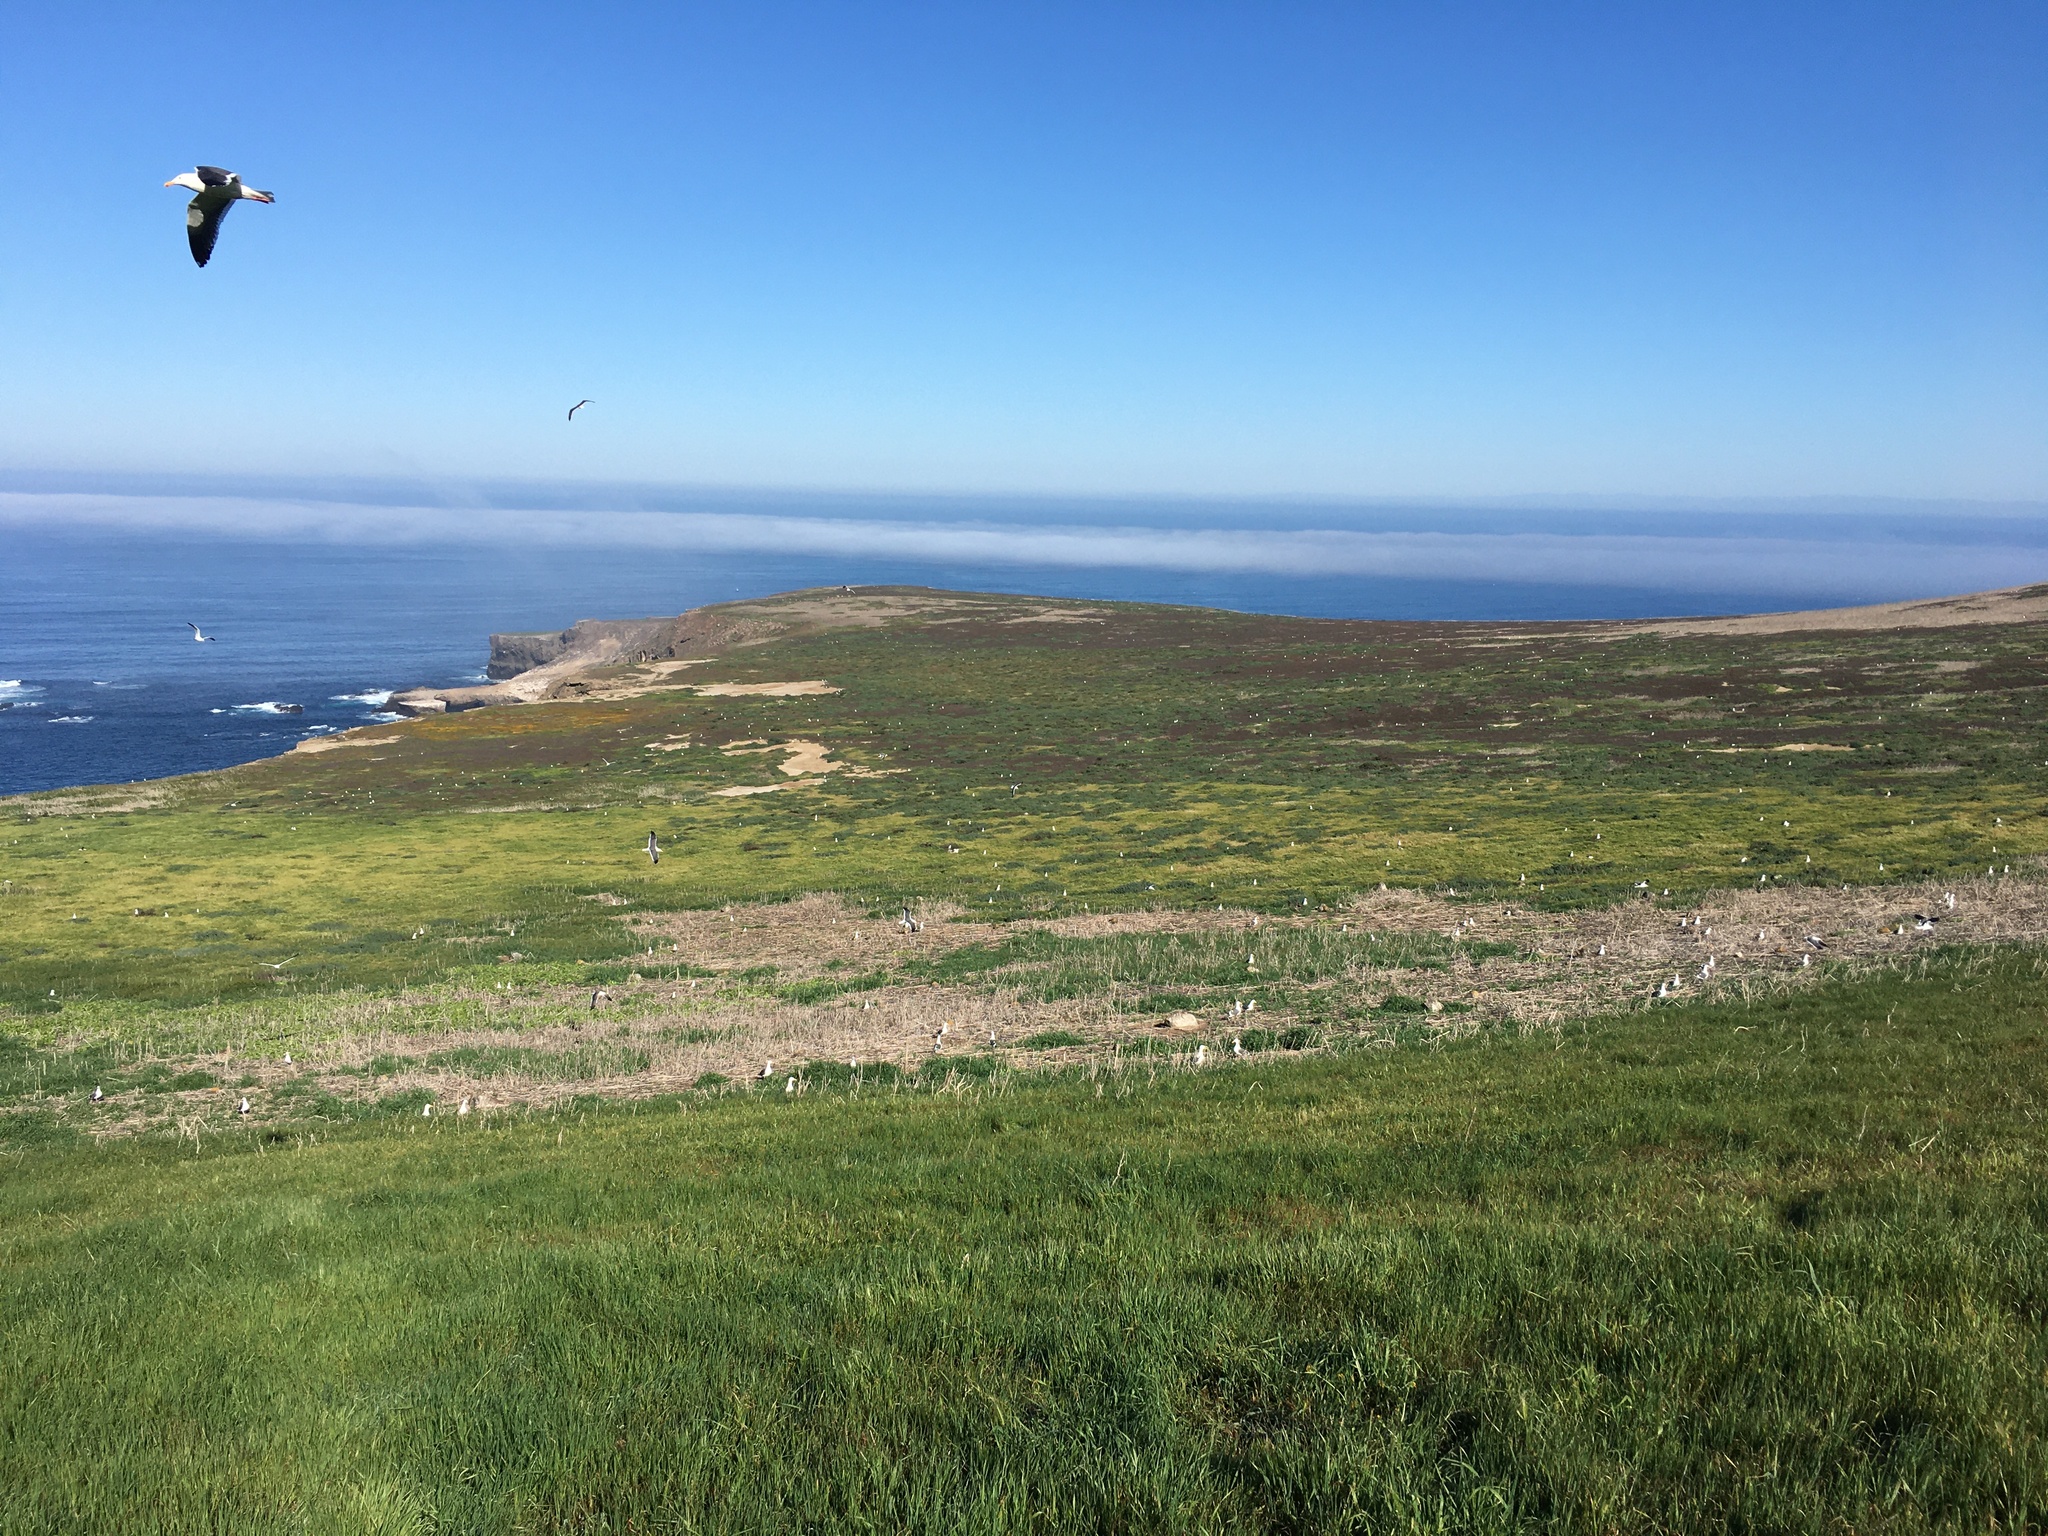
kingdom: Animalia
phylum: Chordata
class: Aves
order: Charadriiformes
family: Laridae
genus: Larus
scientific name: Larus occidentalis
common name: Western gull
